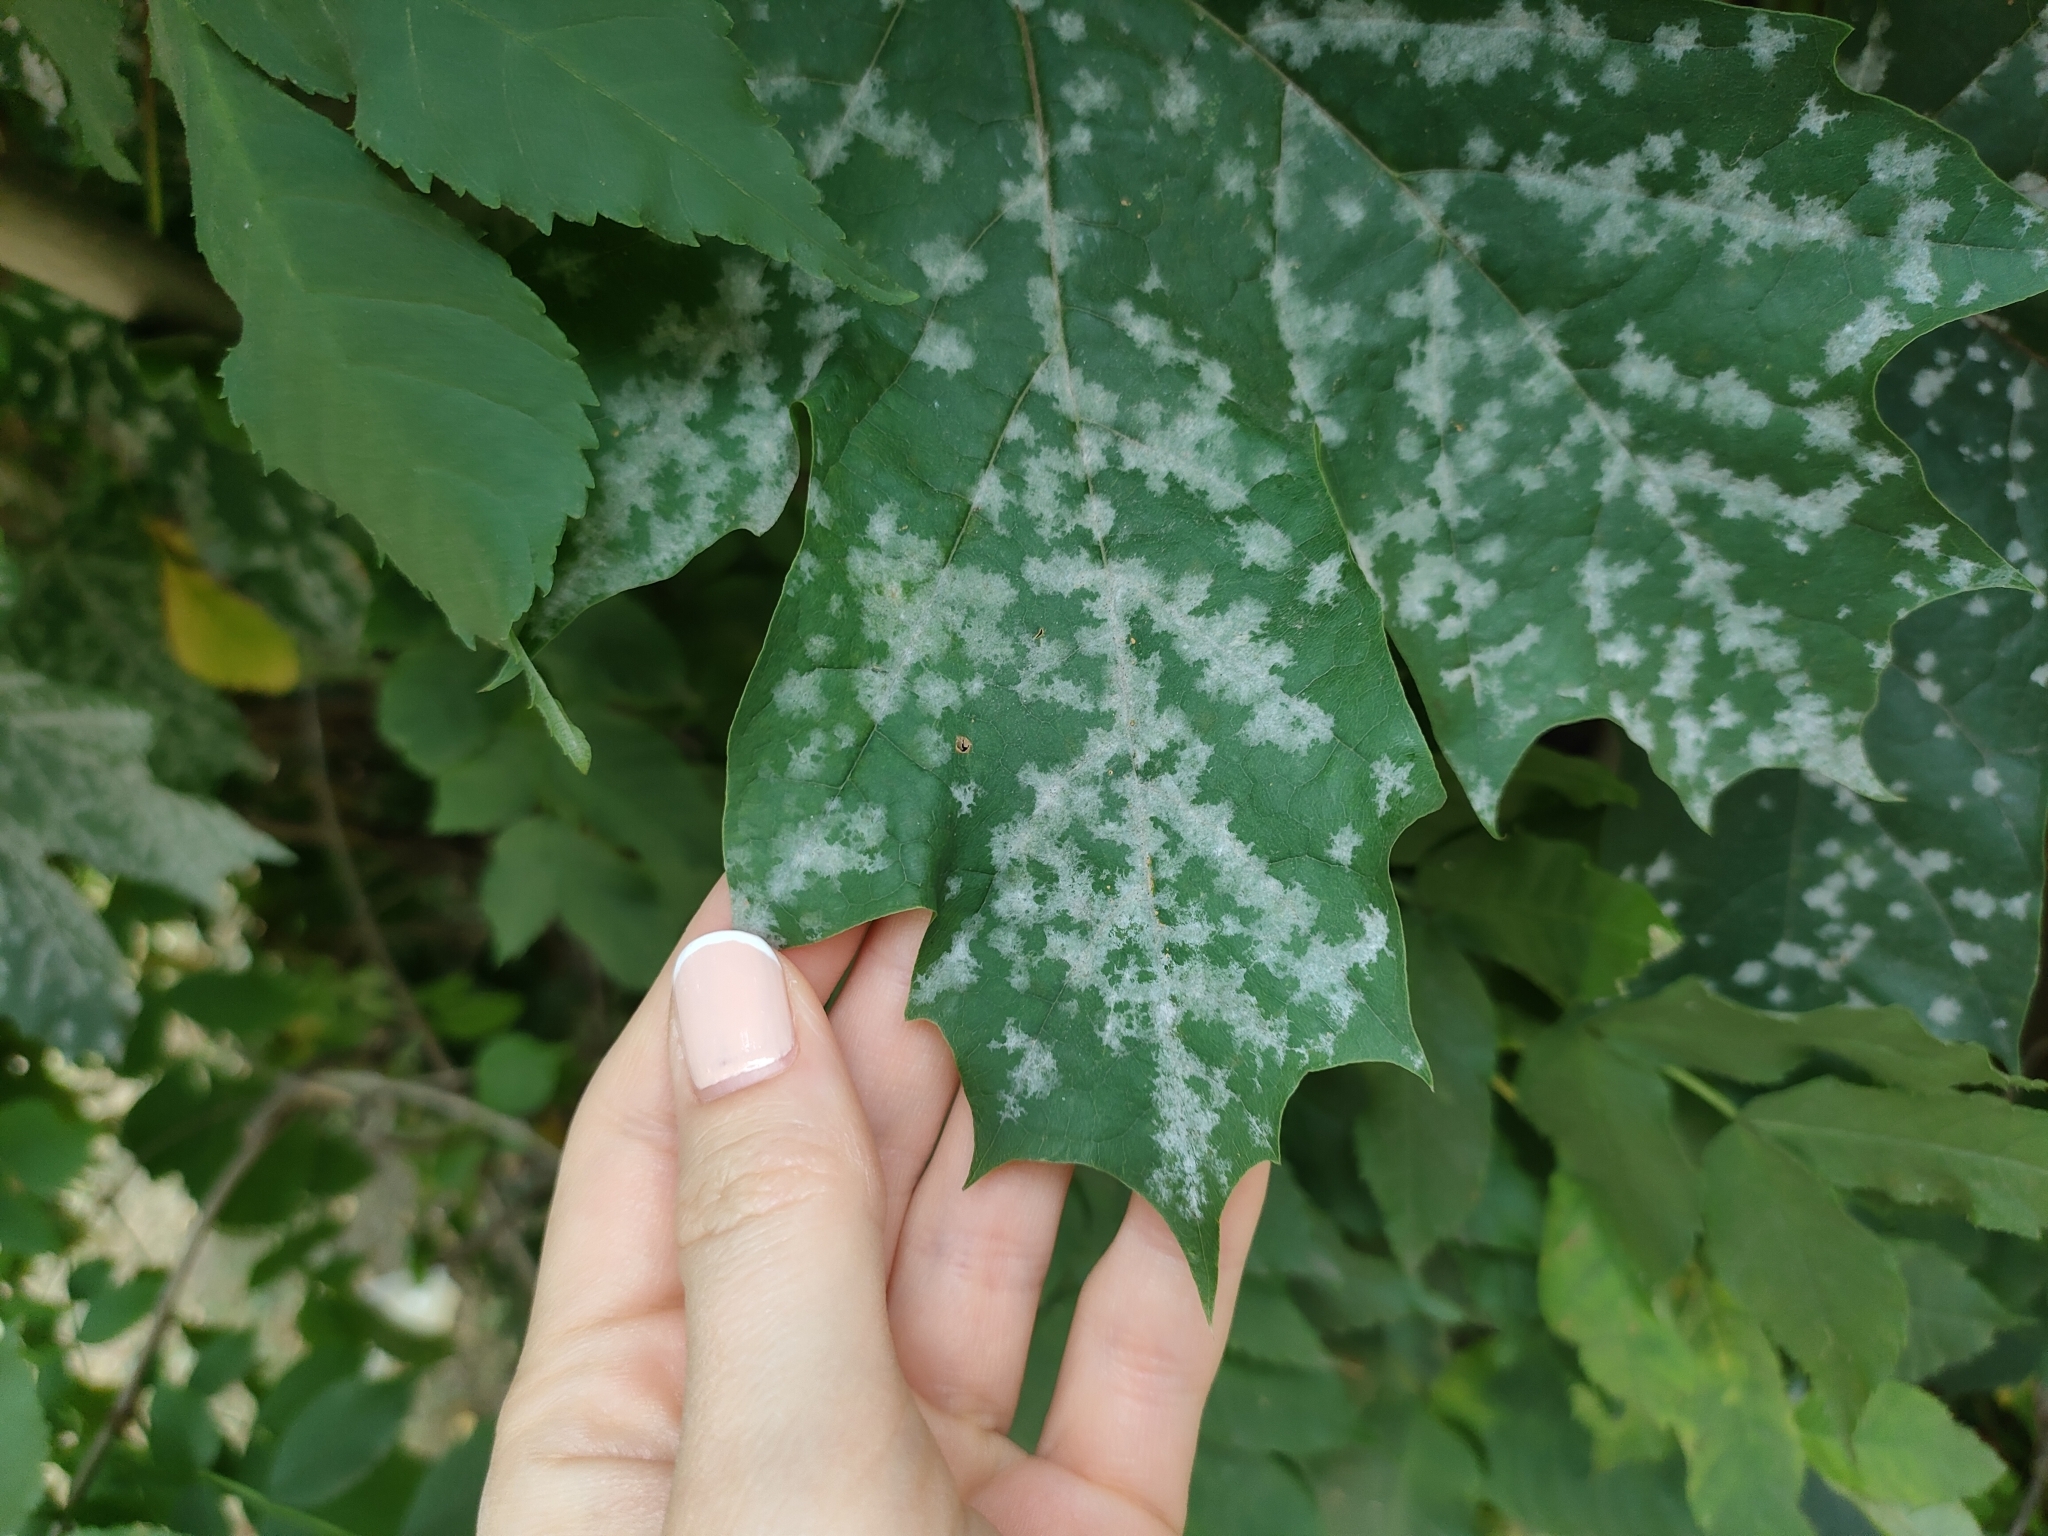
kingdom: Fungi
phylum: Ascomycota
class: Leotiomycetes
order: Helotiales
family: Erysiphaceae
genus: Sawadaea
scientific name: Sawadaea tulasnei
